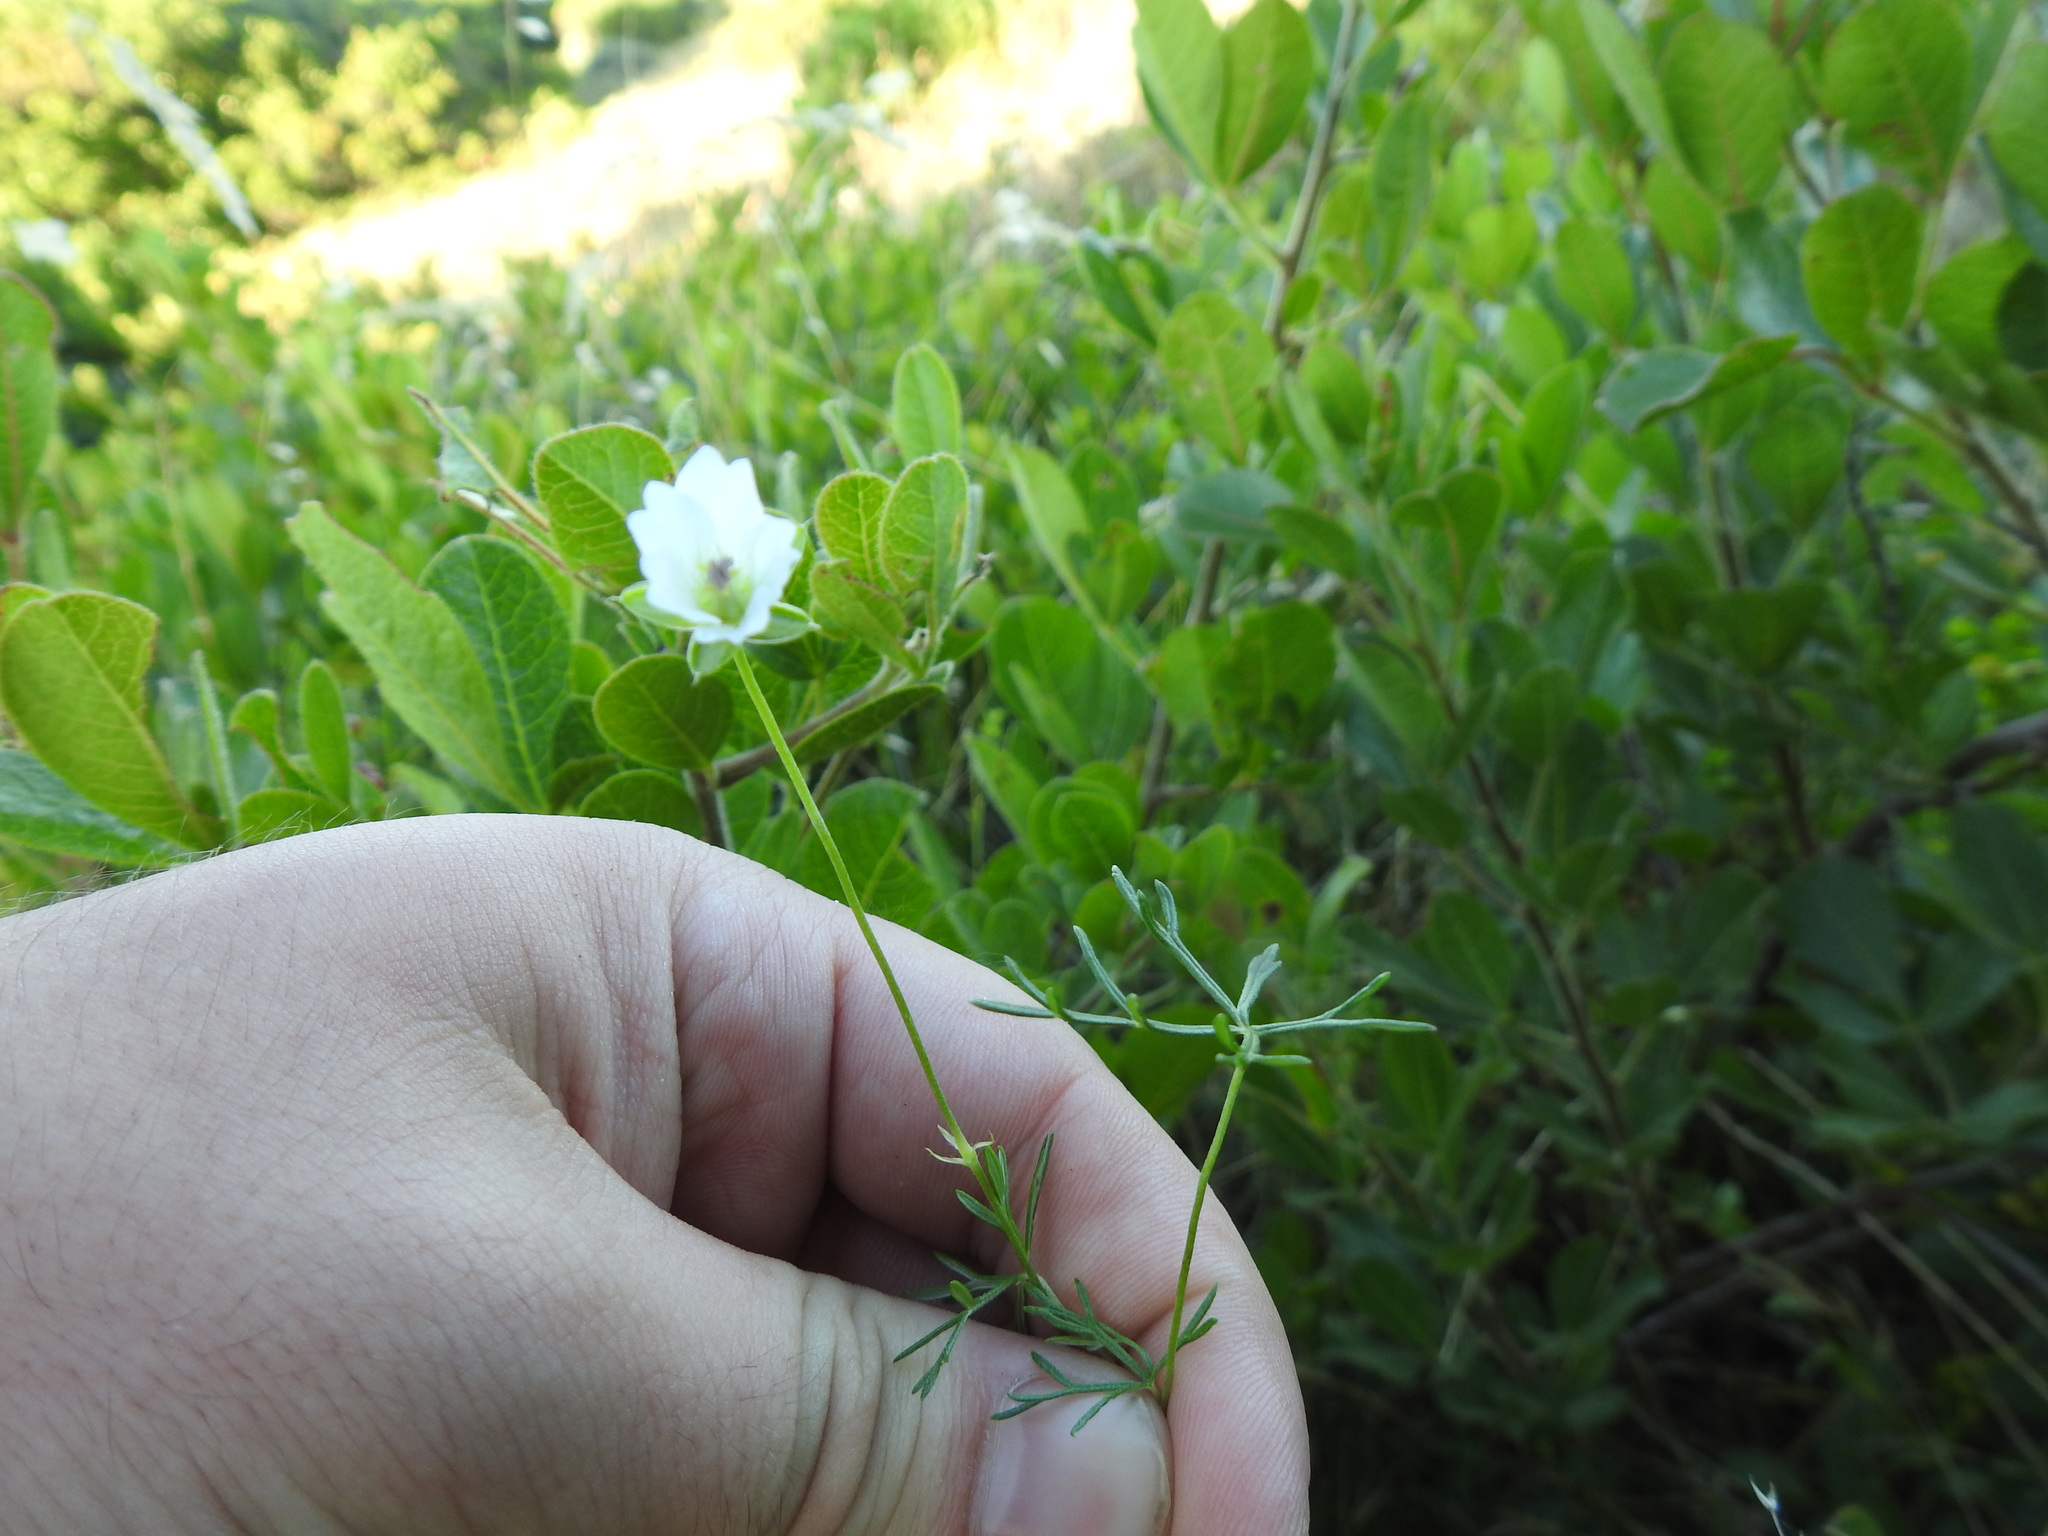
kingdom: Plantae
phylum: Tracheophyta
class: Magnoliopsida
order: Geraniales
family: Geraniaceae
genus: Geranium
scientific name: Geranium incanum
